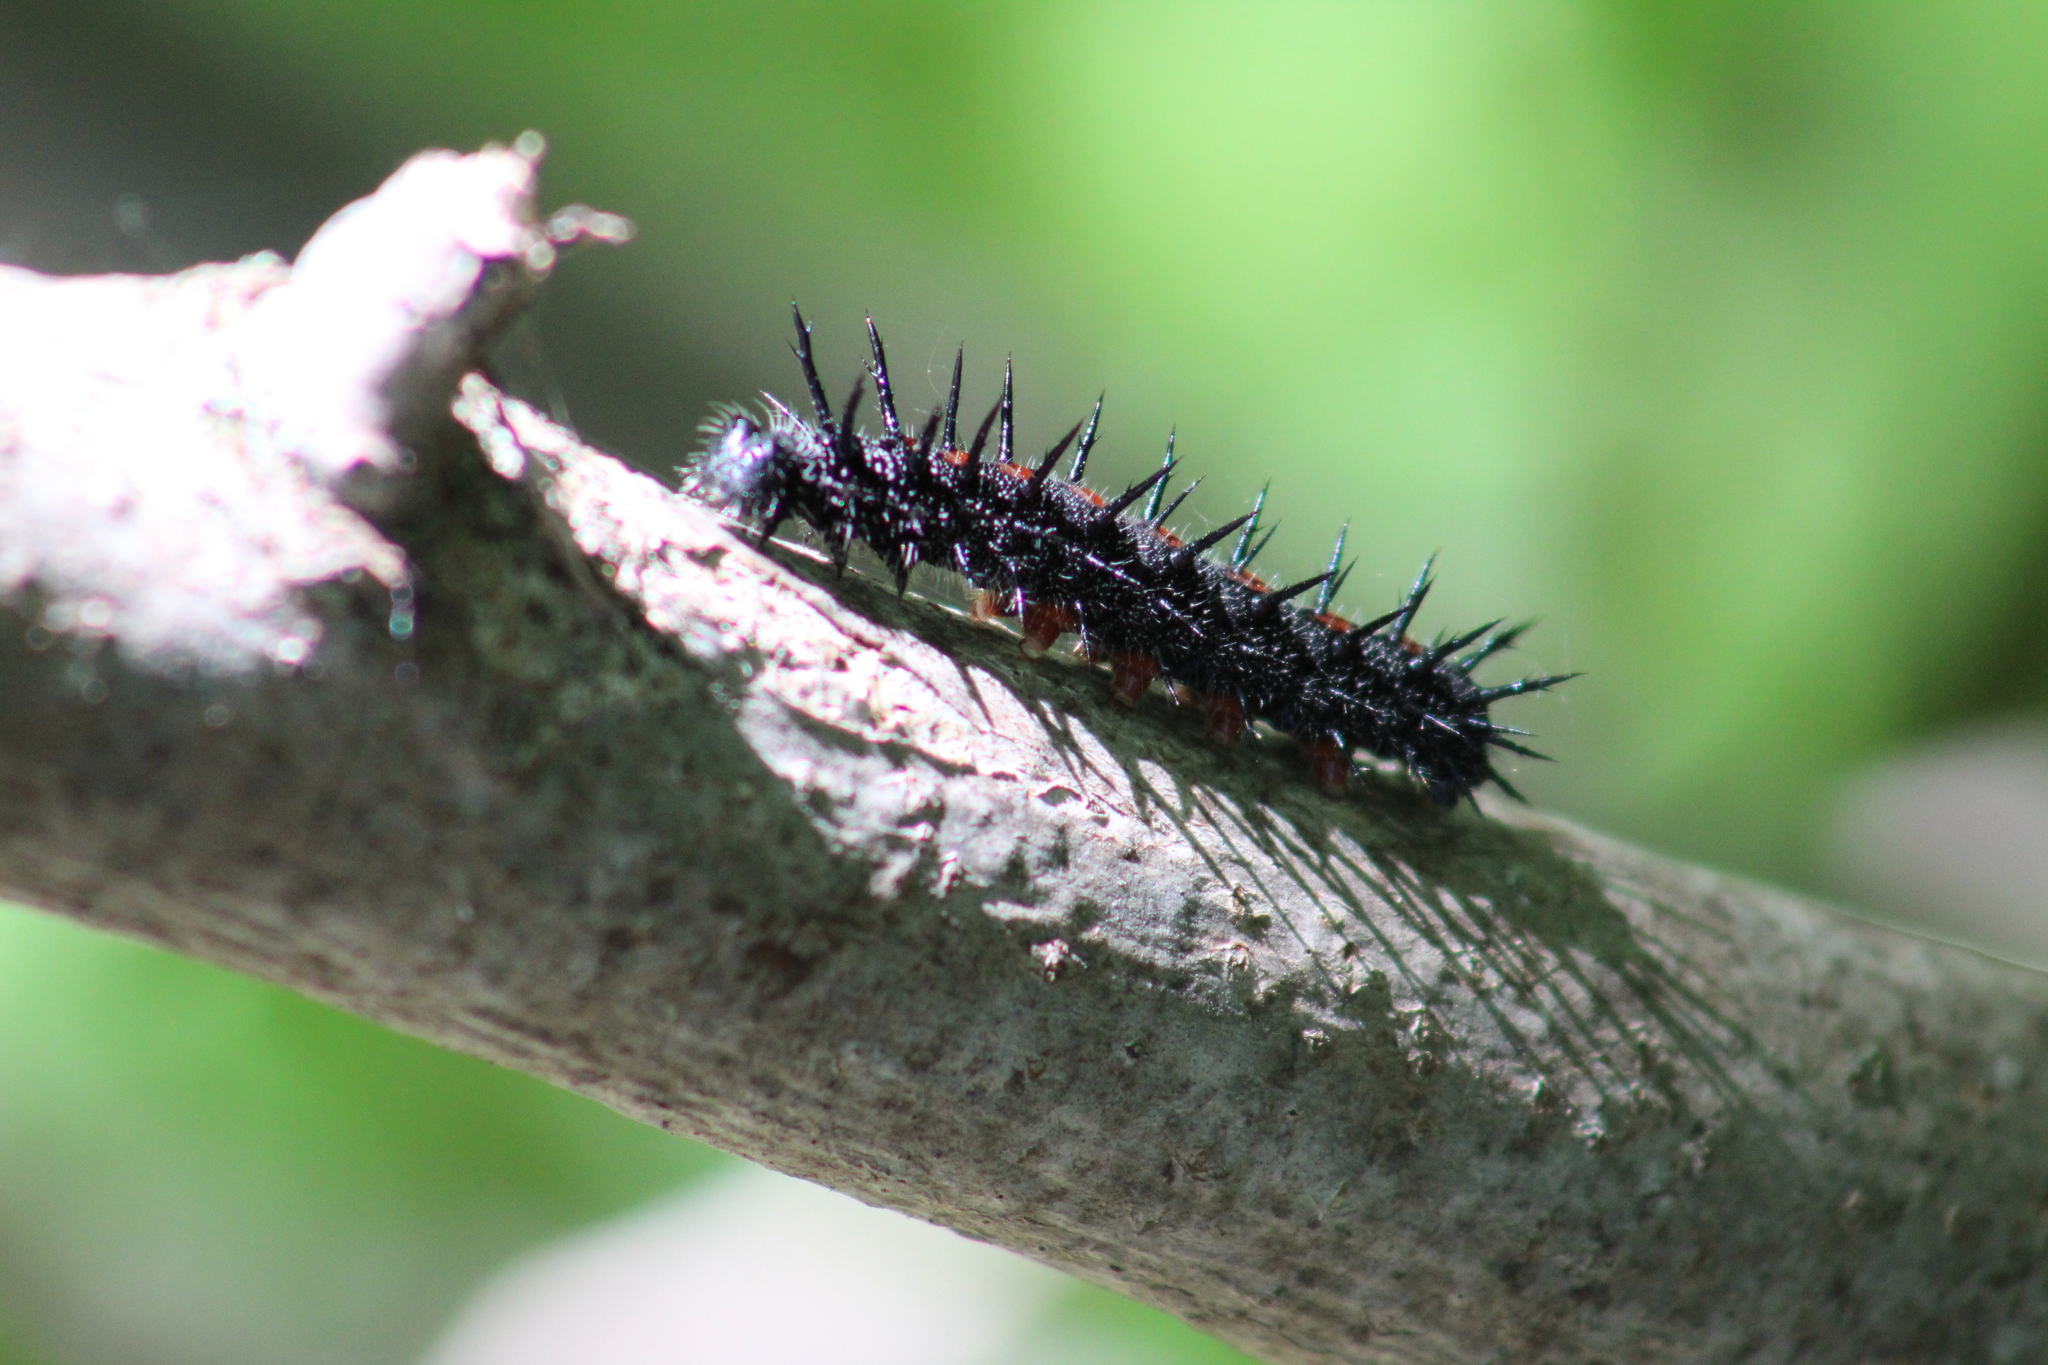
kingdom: Animalia
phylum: Arthropoda
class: Insecta
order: Lepidoptera
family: Nymphalidae
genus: Nymphalis
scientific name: Nymphalis antiopa
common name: Camberwell beauty
